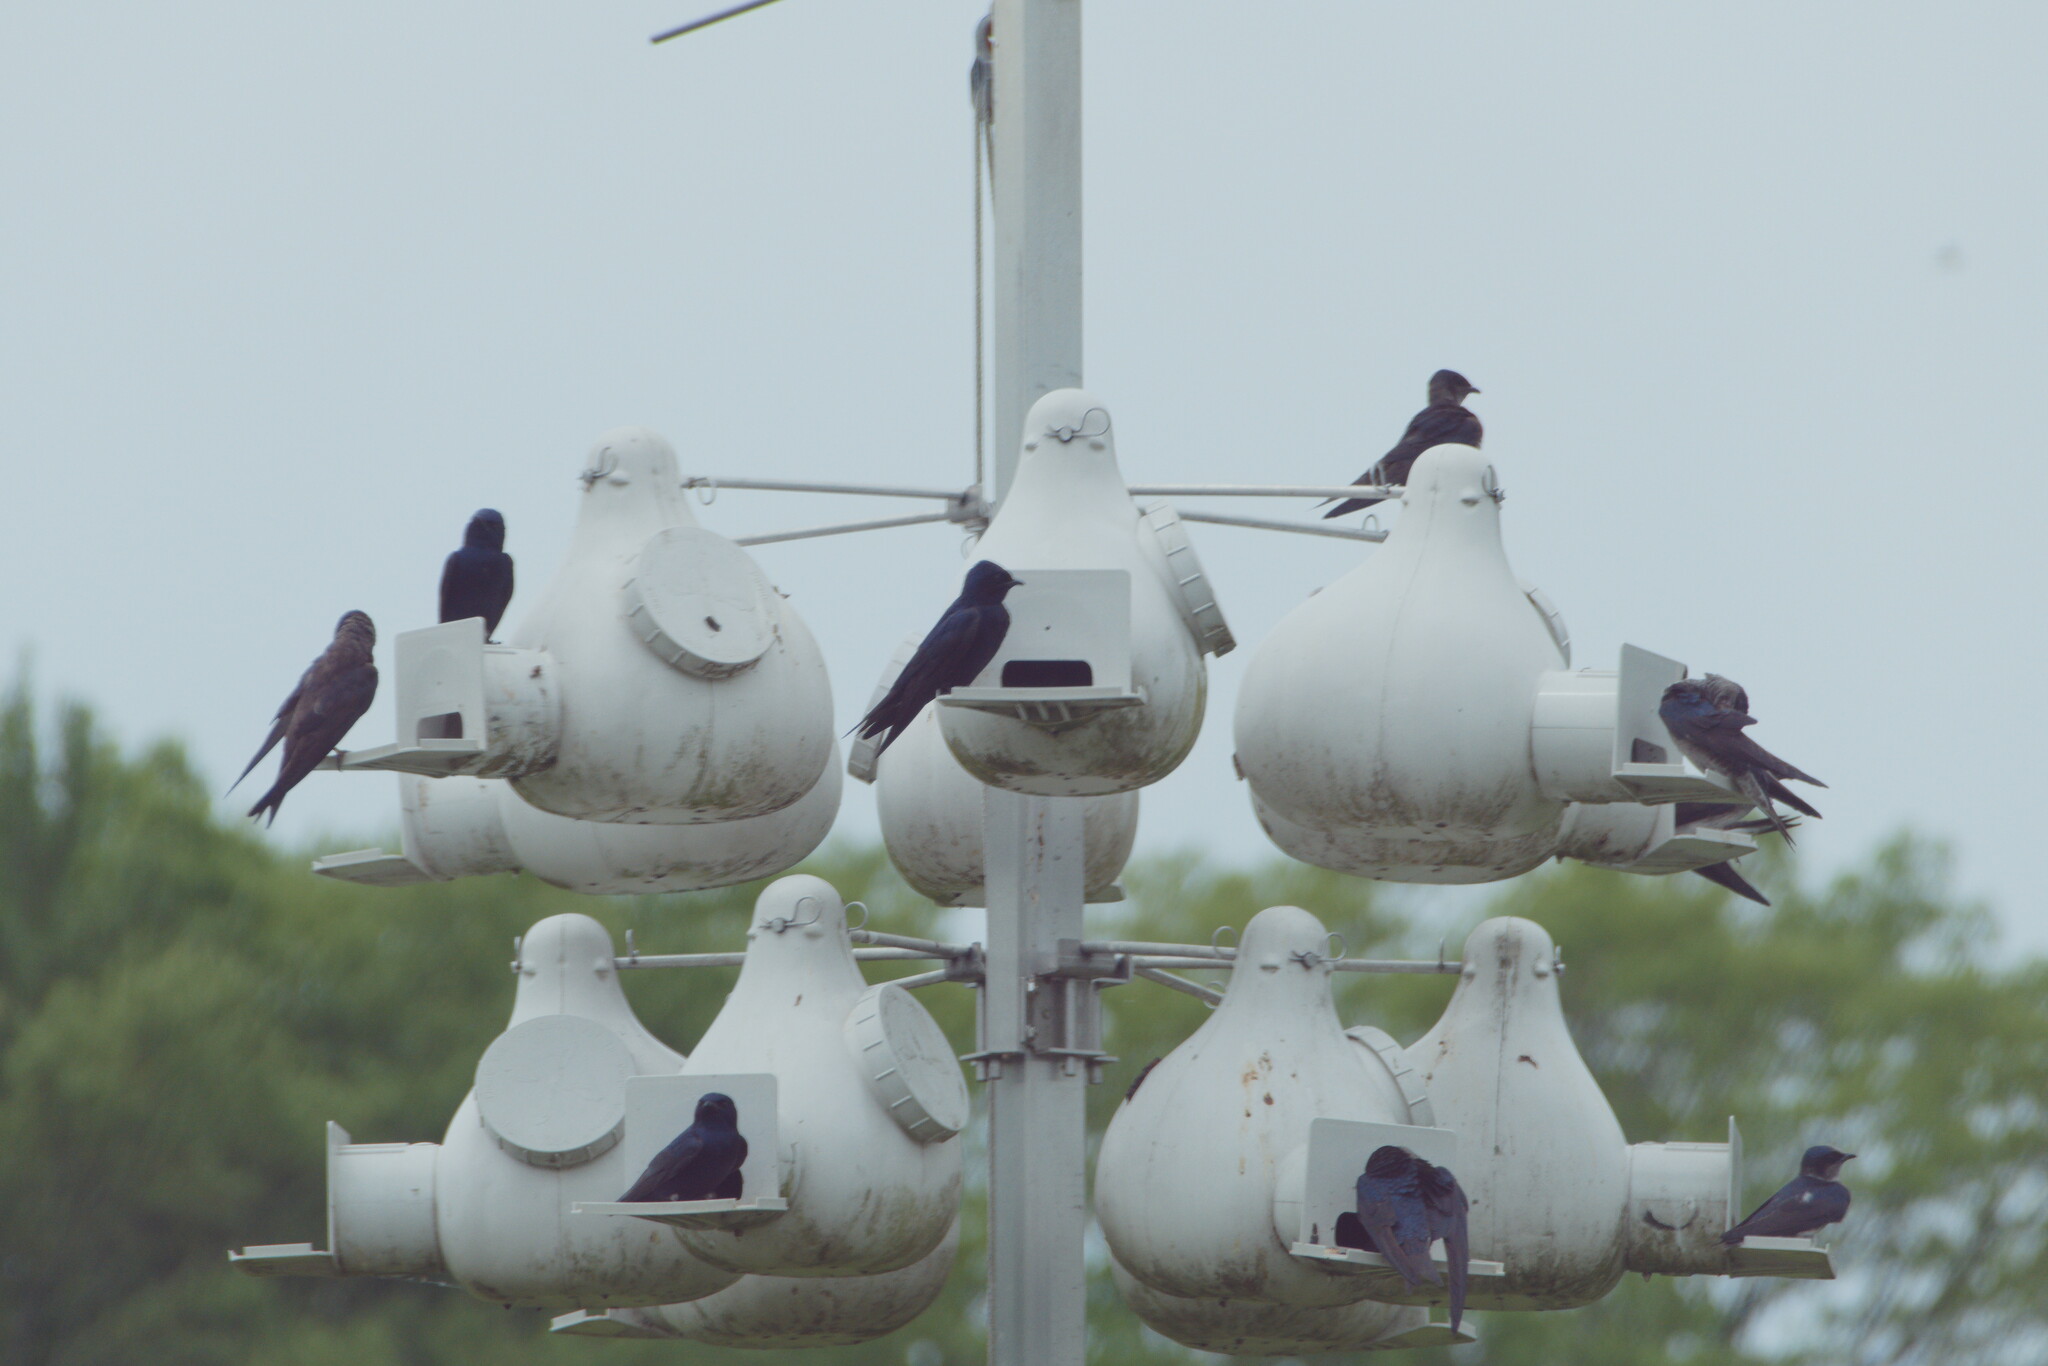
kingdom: Animalia
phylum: Chordata
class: Aves
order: Passeriformes
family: Hirundinidae
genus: Progne
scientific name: Progne subis
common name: Purple martin
